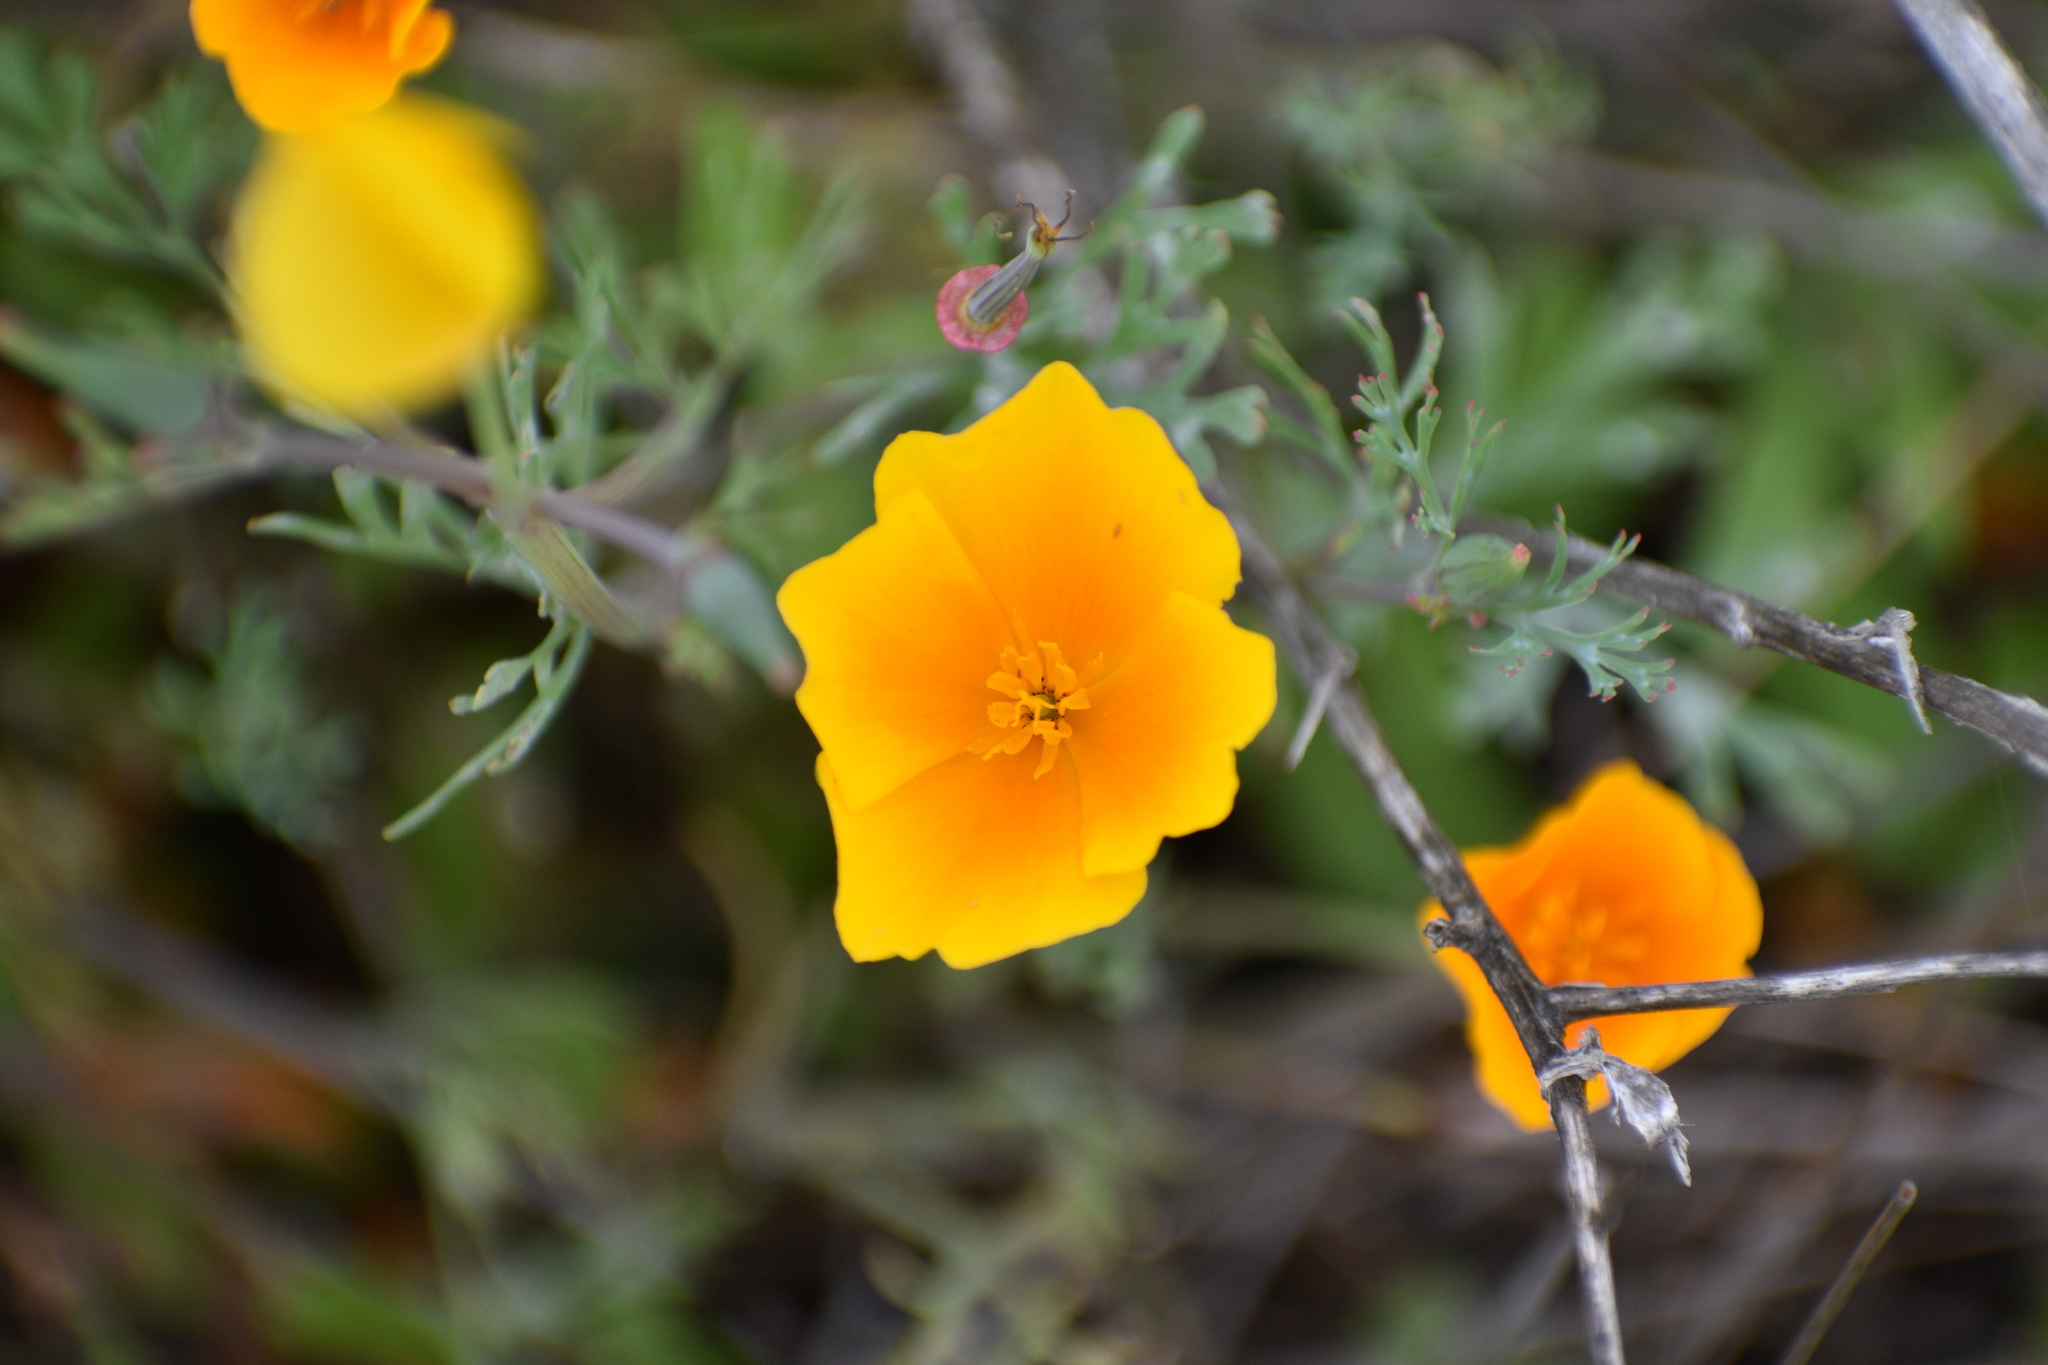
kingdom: Plantae
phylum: Tracheophyta
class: Magnoliopsida
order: Ranunculales
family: Papaveraceae
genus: Eschscholzia
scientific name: Eschscholzia californica
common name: California poppy
